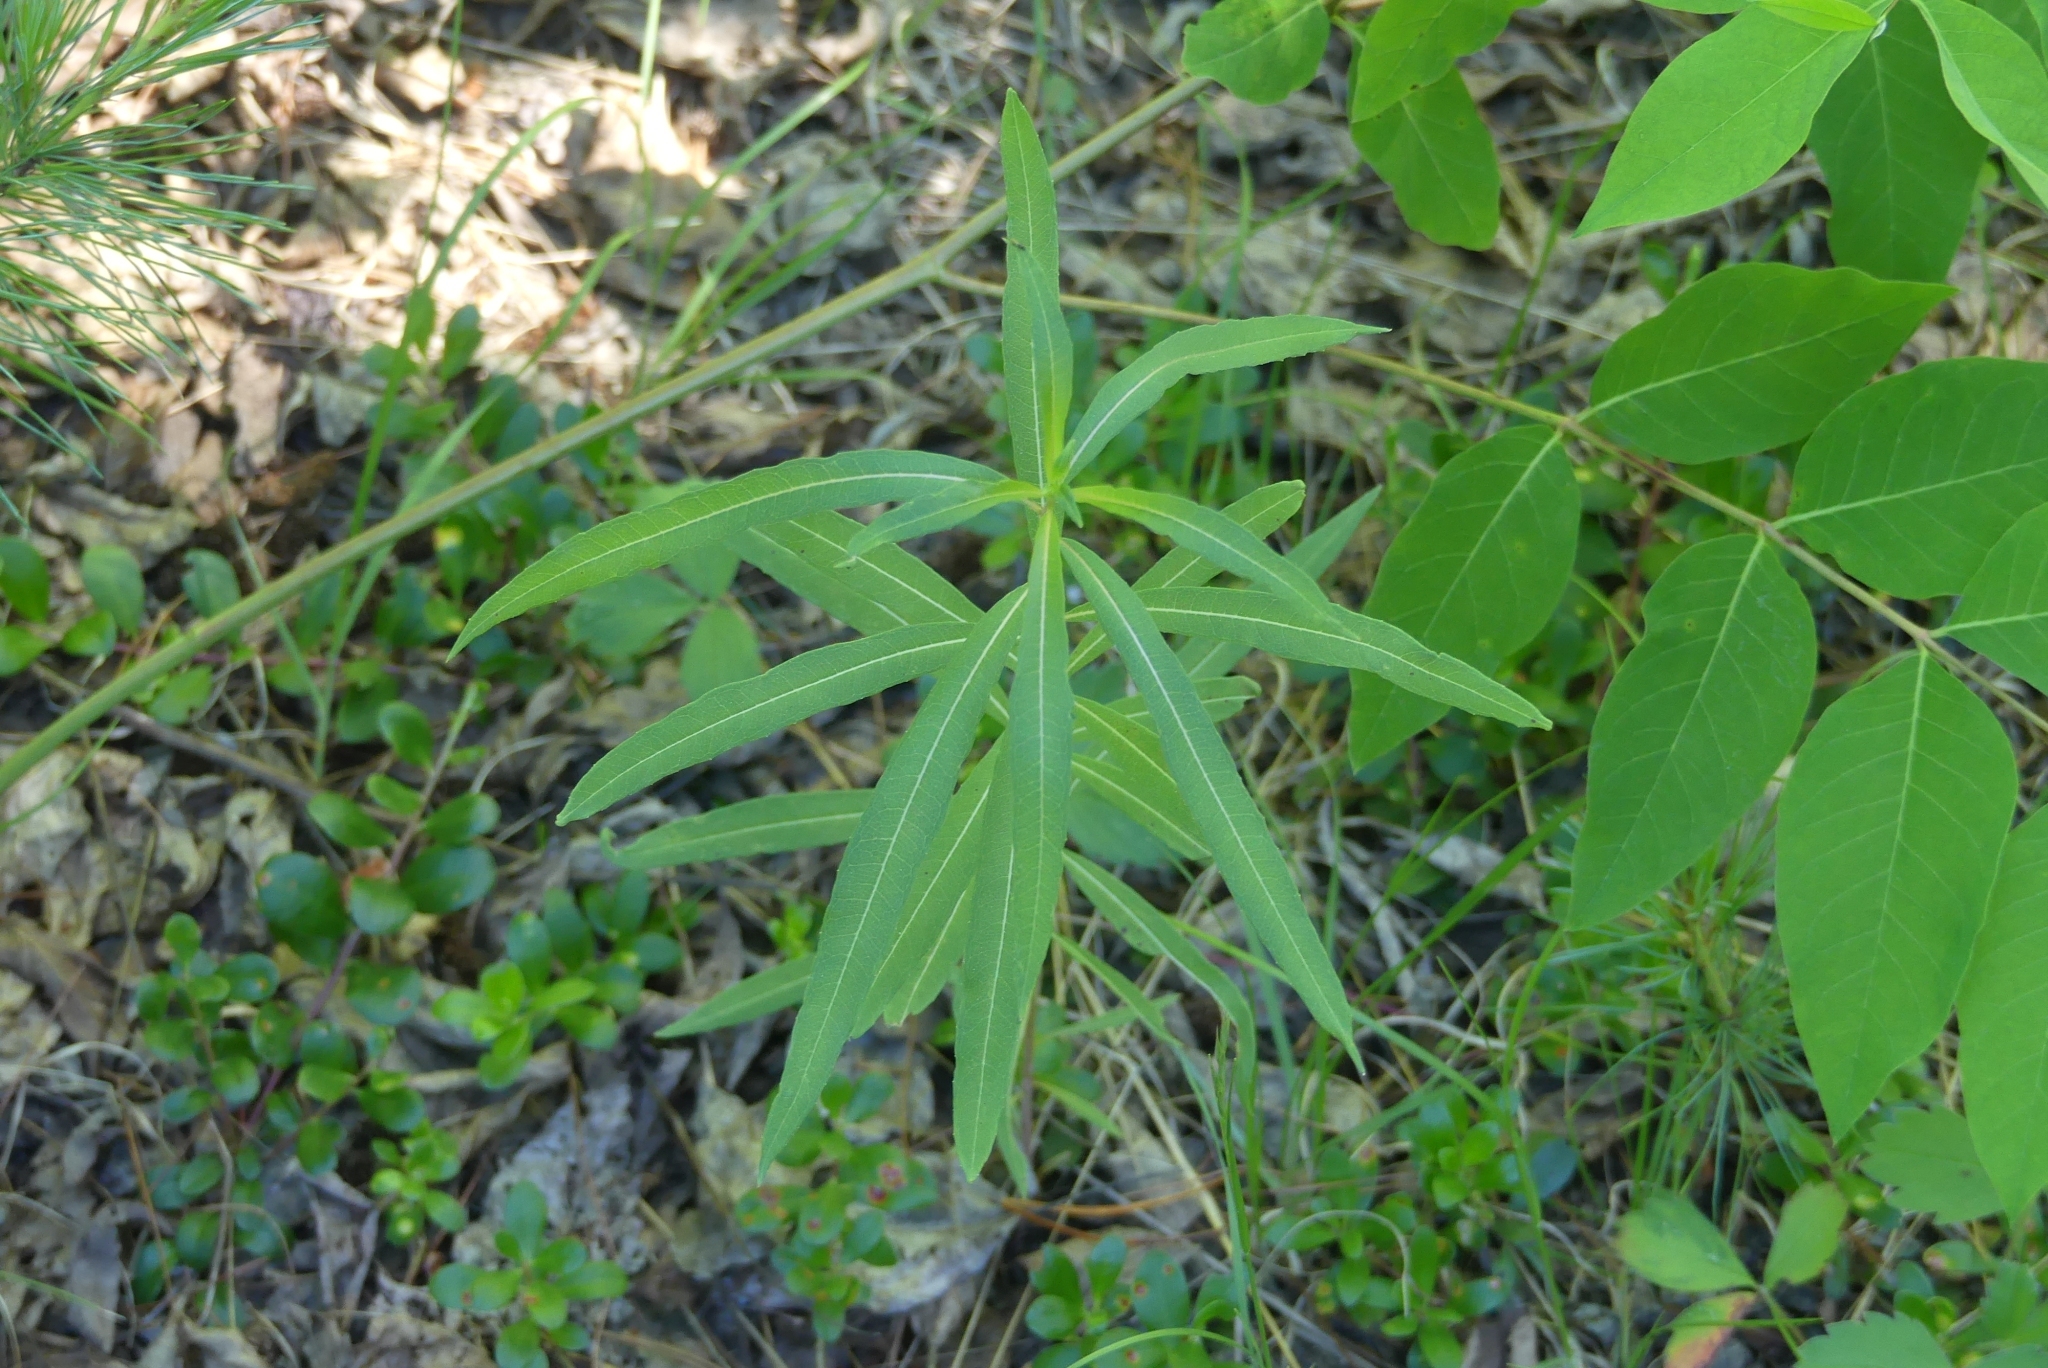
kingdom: Plantae
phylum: Tracheophyta
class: Magnoliopsida
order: Myrtales
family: Onagraceae
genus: Chamaenerion
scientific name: Chamaenerion angustifolium
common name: Fireweed
